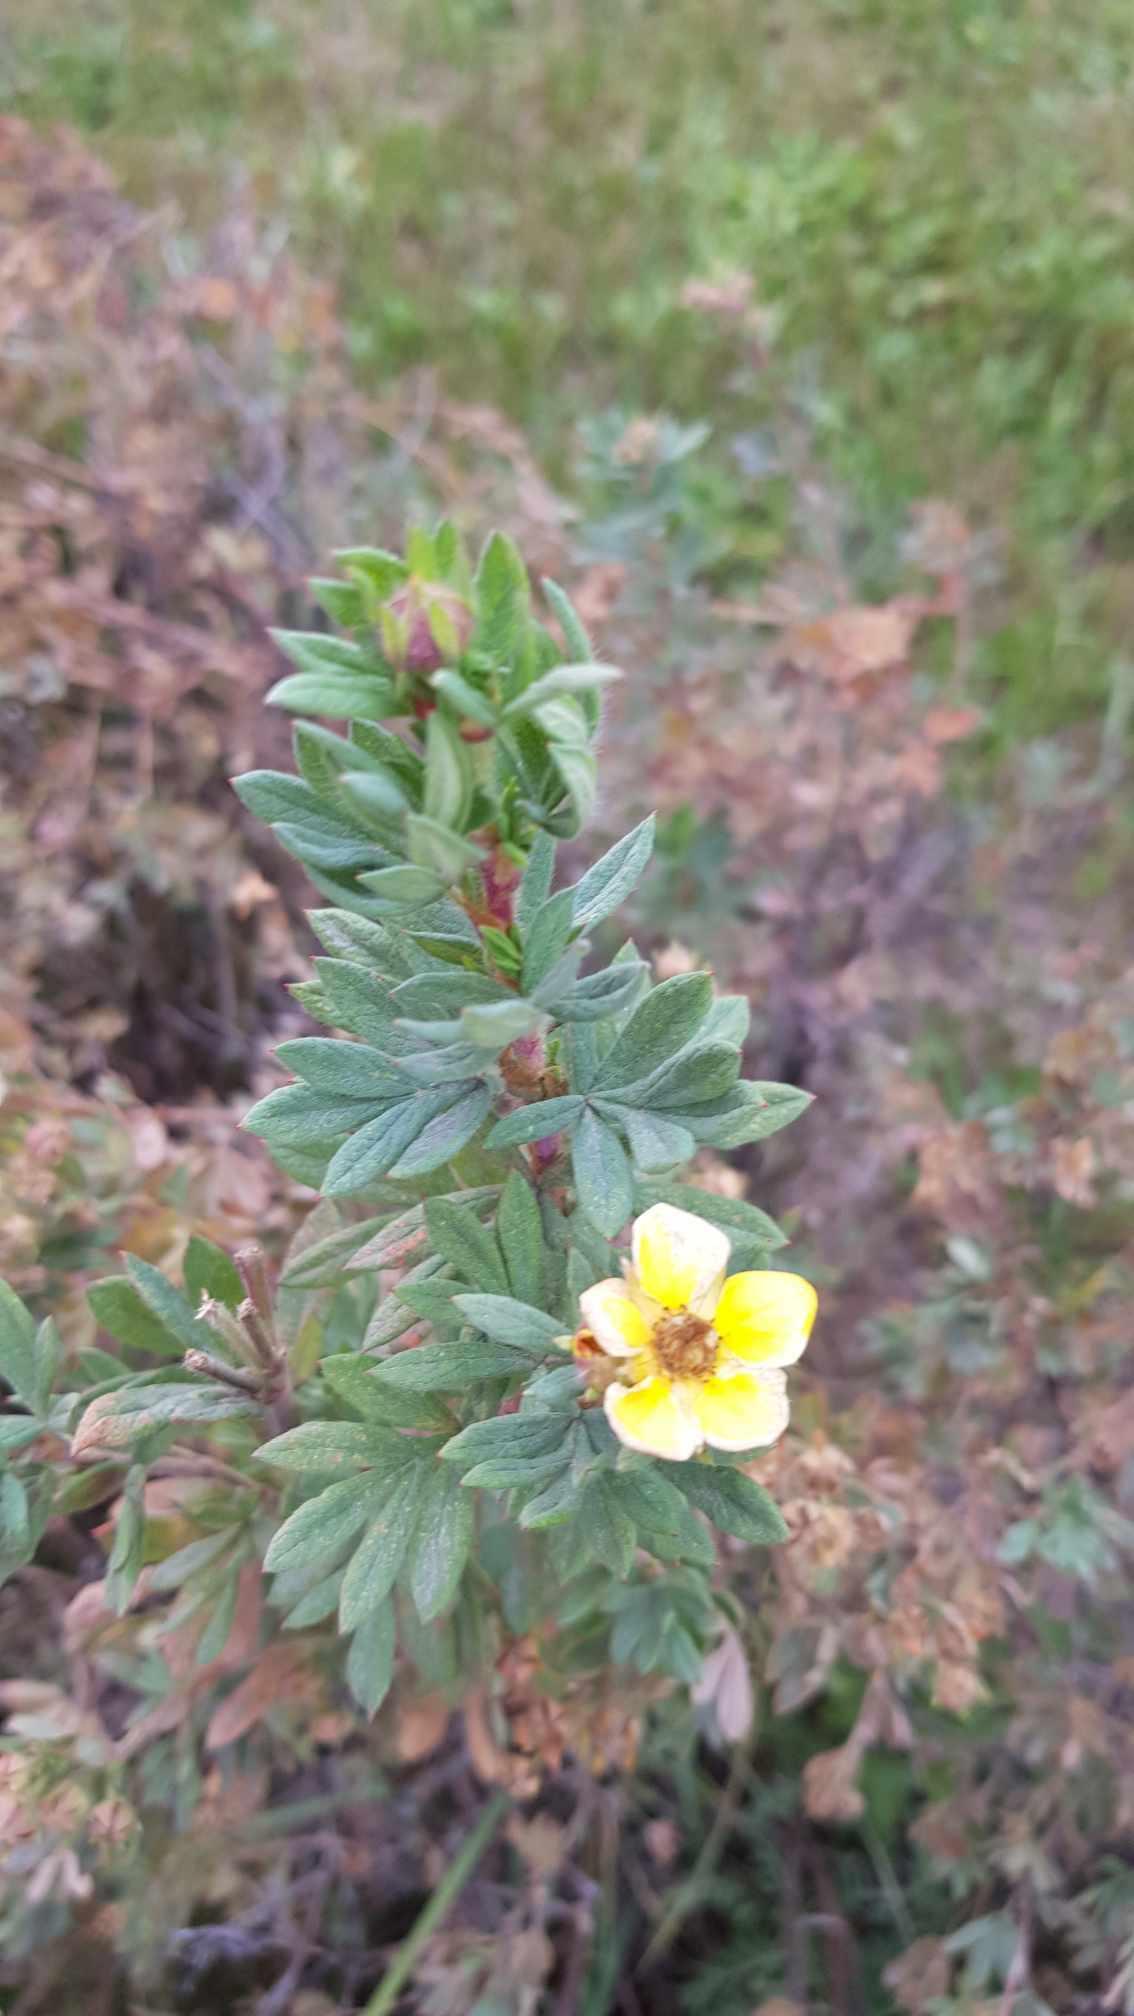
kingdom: Plantae
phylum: Tracheophyta
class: Magnoliopsida
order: Rosales
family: Rosaceae
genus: Dasiphora
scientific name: Dasiphora fruticosa
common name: Shrubby cinquefoil
